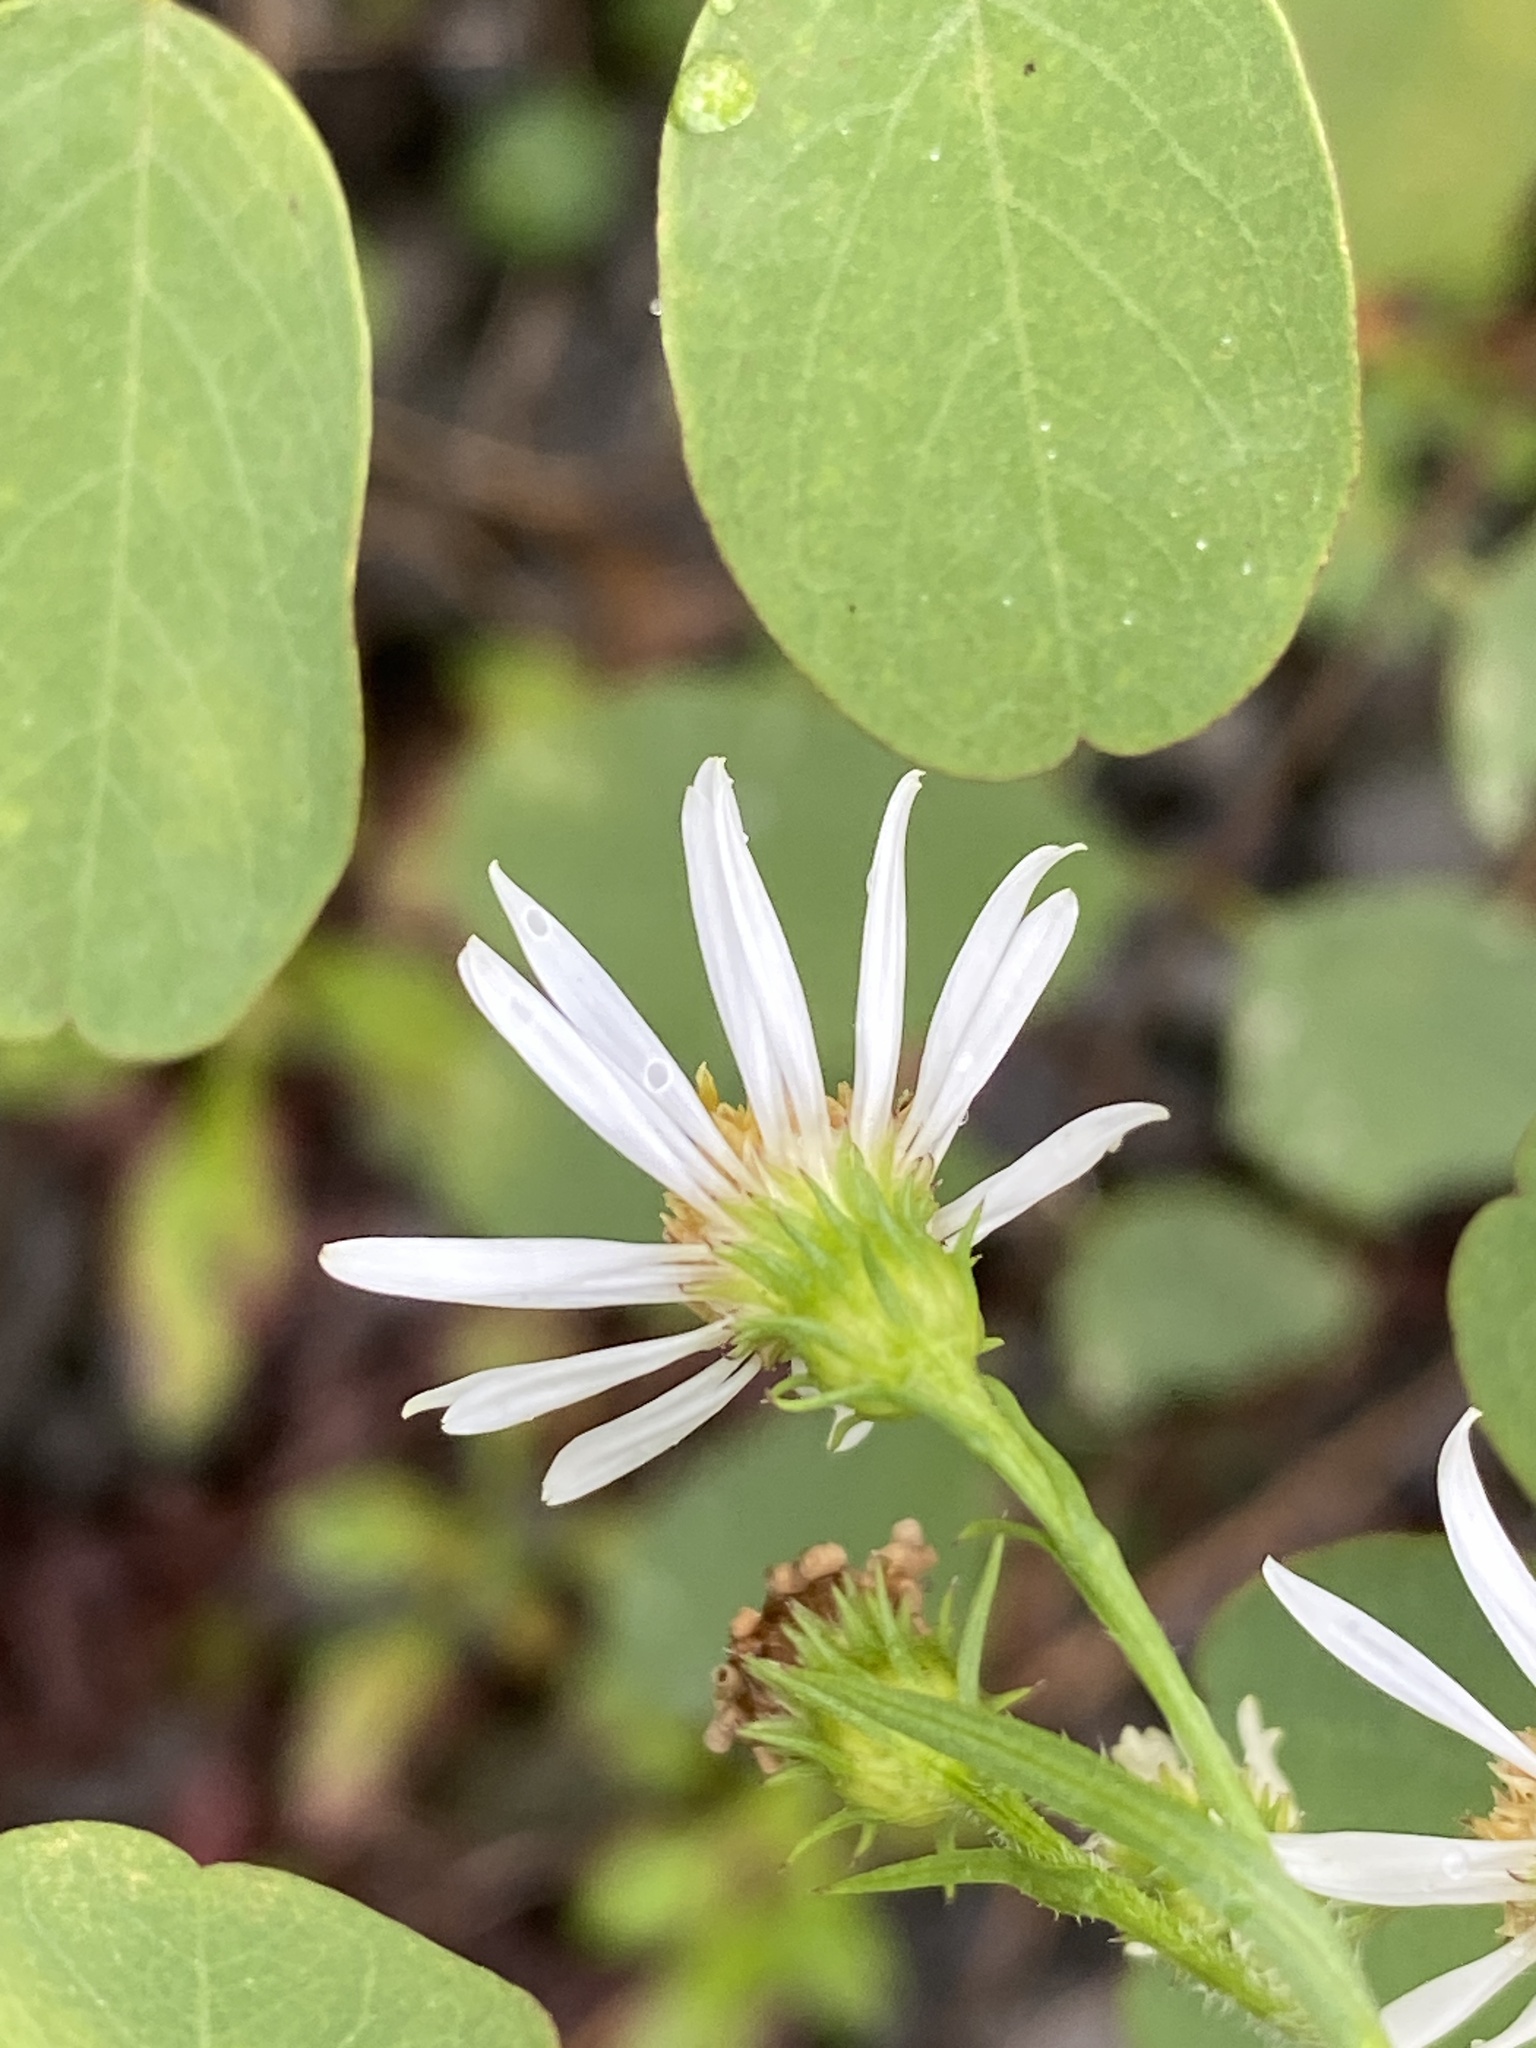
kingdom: Plantae
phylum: Tracheophyta
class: Magnoliopsida
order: Asterales
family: Asteraceae
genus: Symphyotrichum
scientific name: Symphyotrichum pilosum
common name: Awl aster
